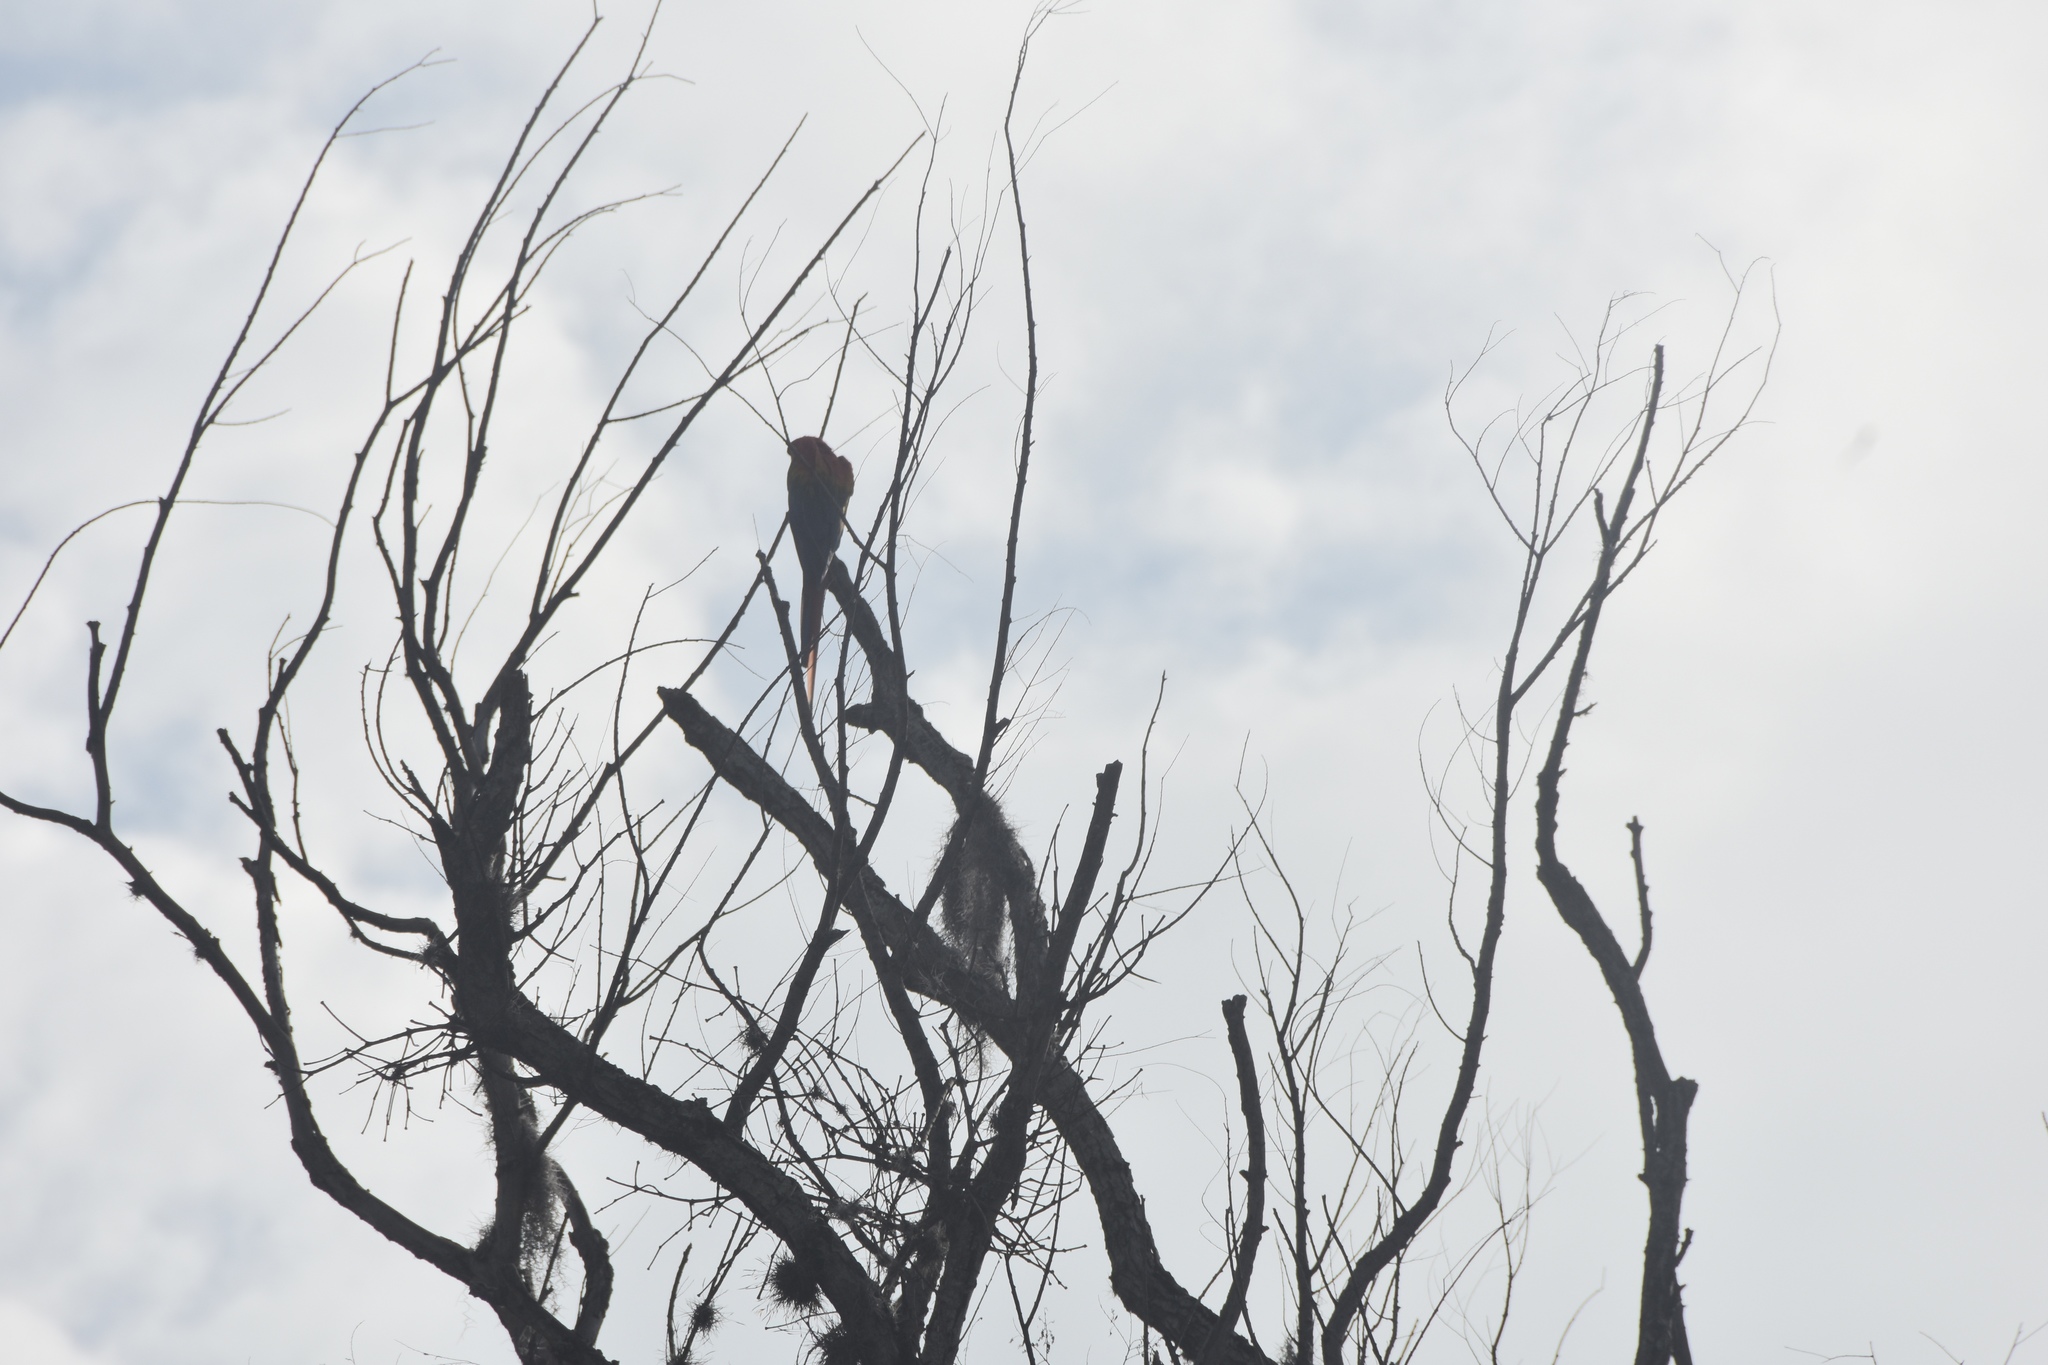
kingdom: Animalia
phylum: Chordata
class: Aves
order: Psittaciformes
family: Psittacidae
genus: Ara
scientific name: Ara macao
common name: Scarlet macaw
